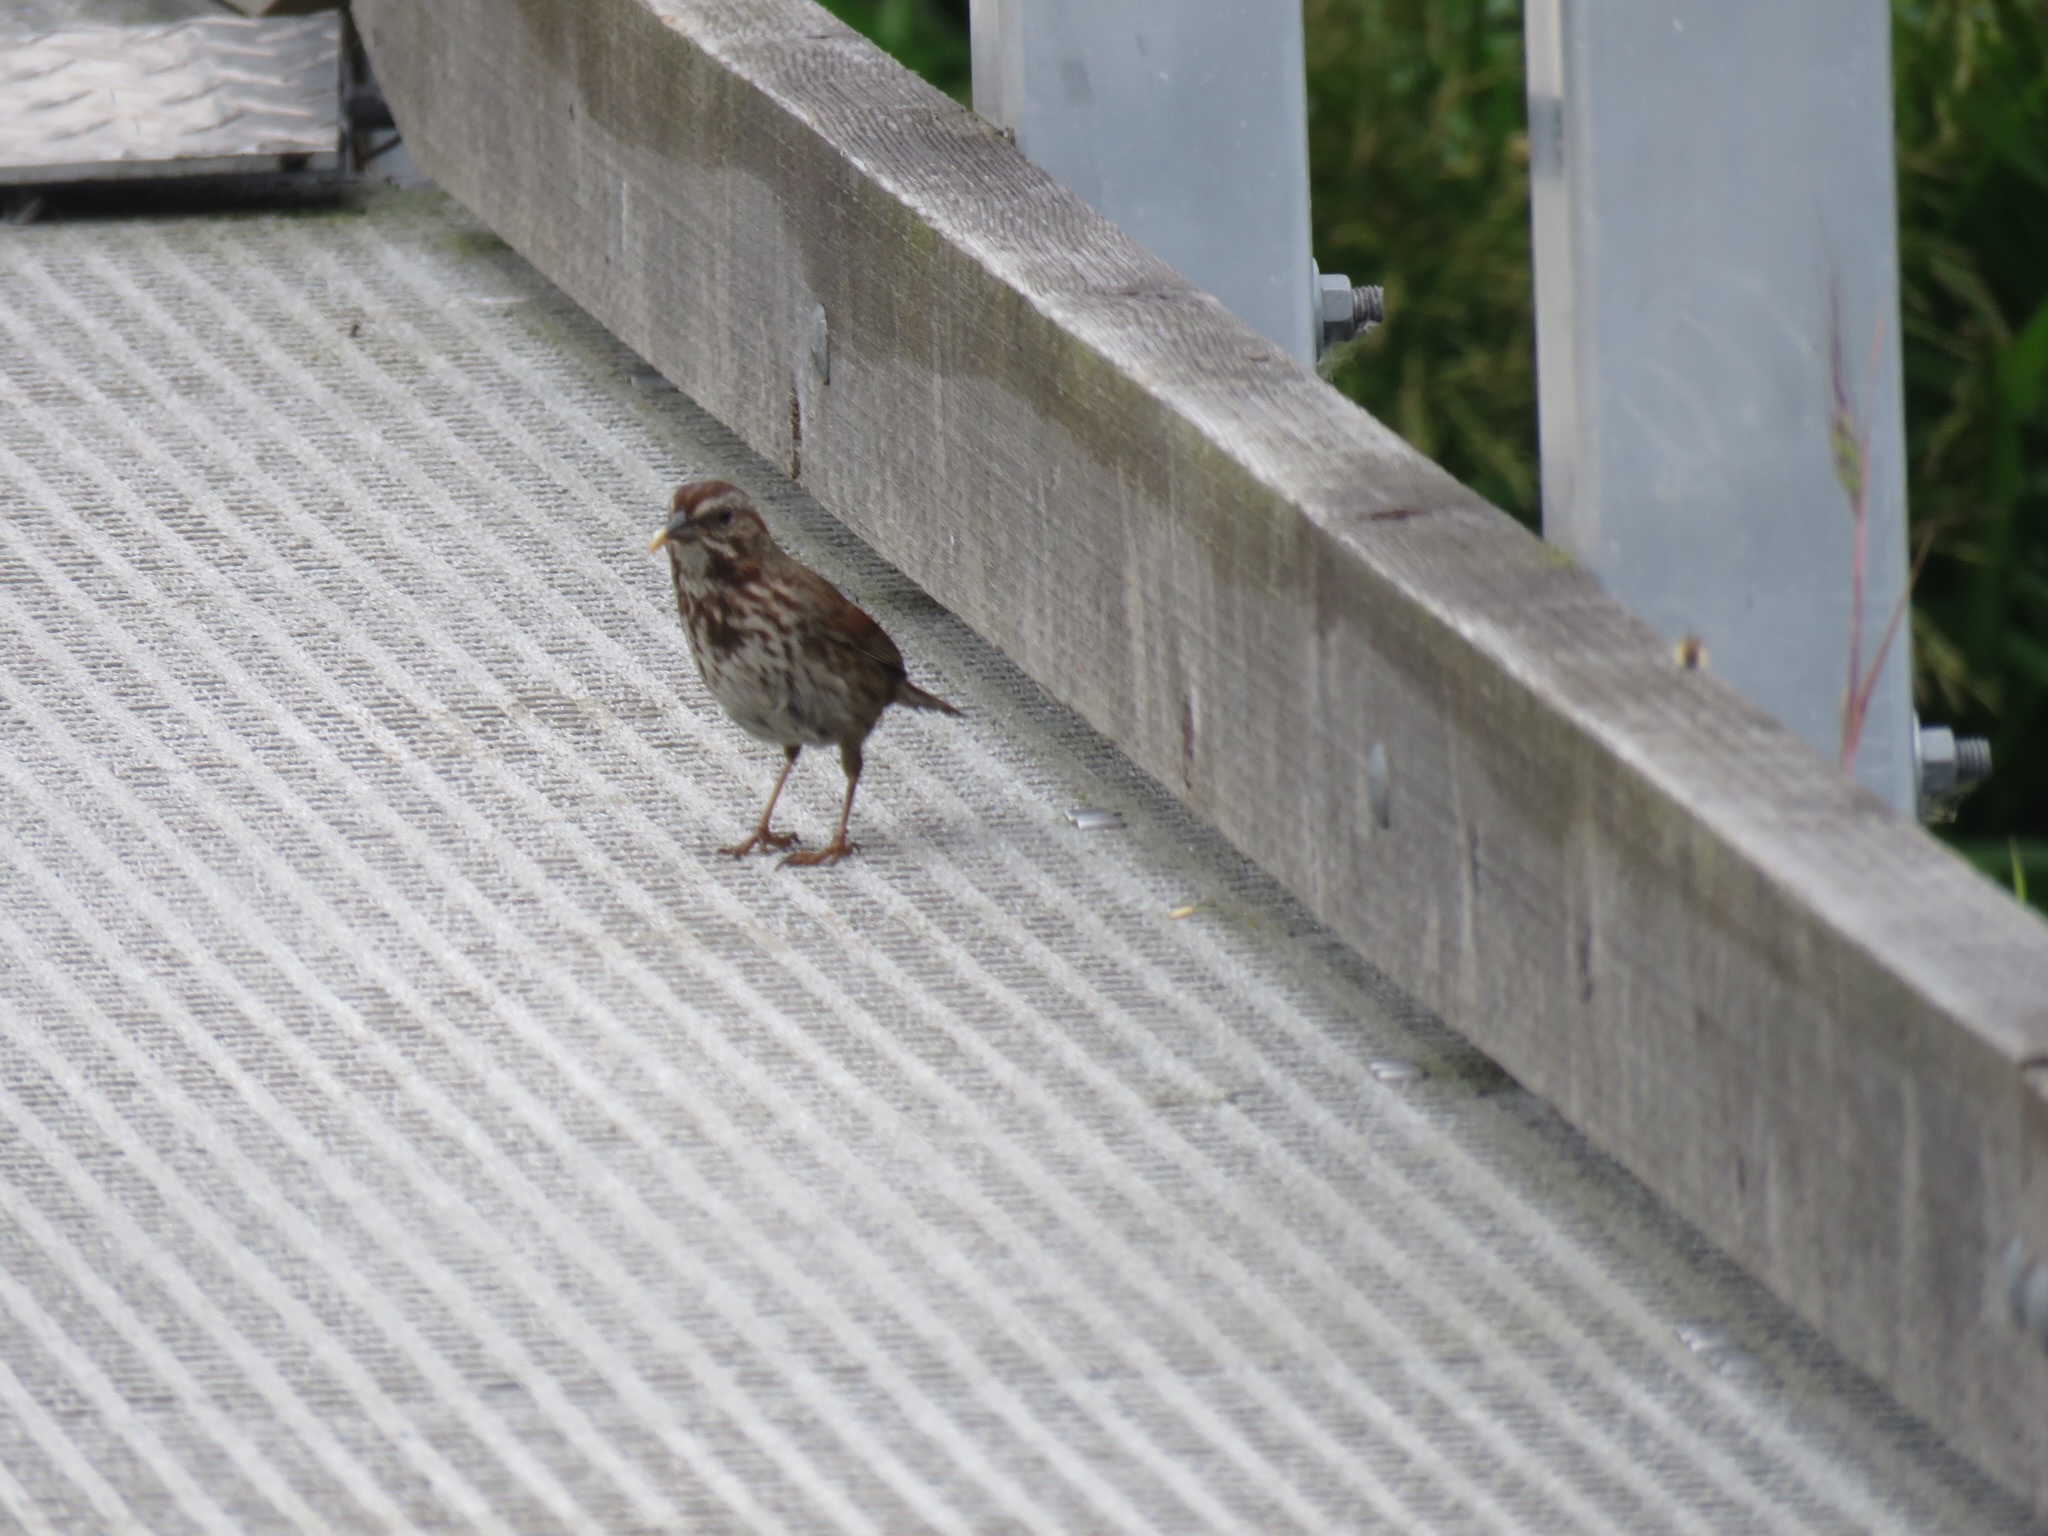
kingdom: Animalia
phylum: Chordata
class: Aves
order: Passeriformes
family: Passerellidae
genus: Melospiza
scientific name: Melospiza melodia
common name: Song sparrow
